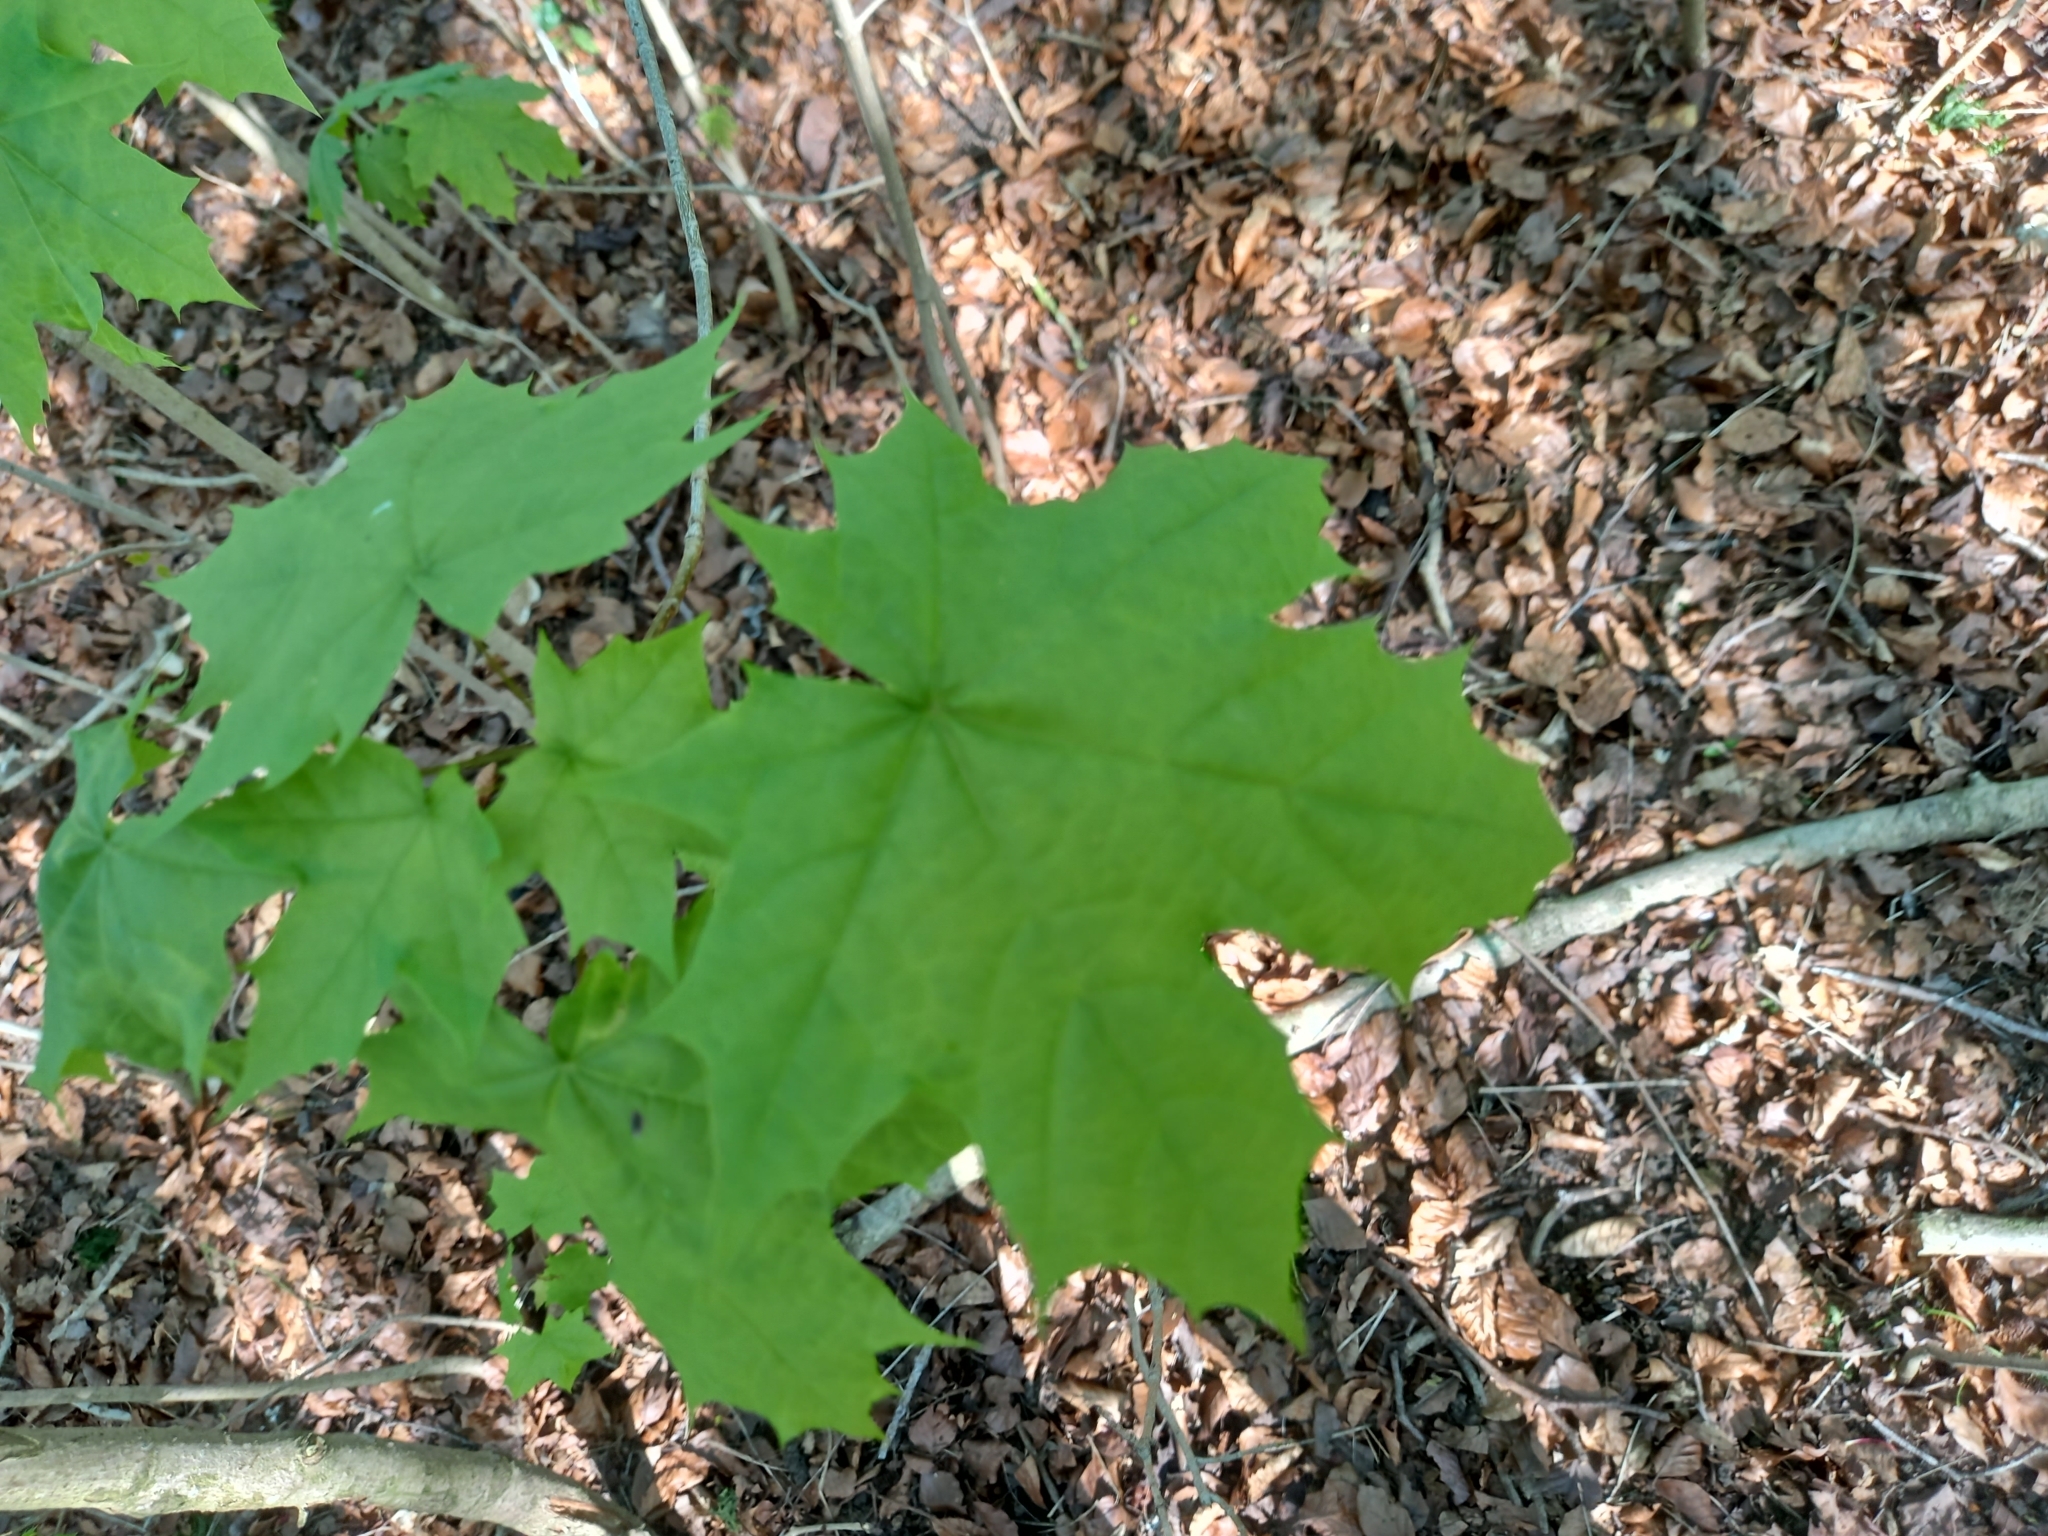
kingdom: Plantae
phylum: Tracheophyta
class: Magnoliopsida
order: Sapindales
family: Sapindaceae
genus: Acer
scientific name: Acer platanoides
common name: Norway maple
